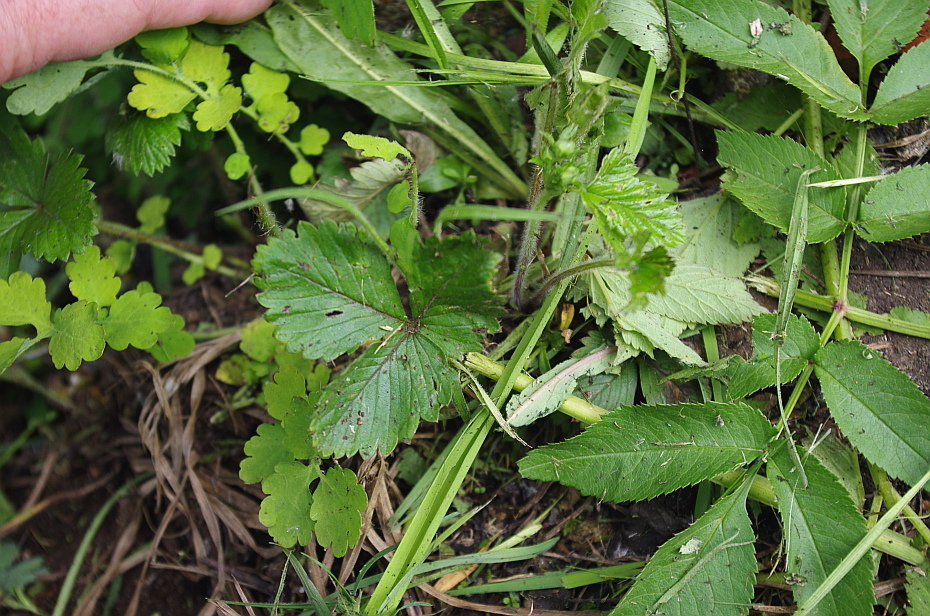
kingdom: Plantae
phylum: Tracheophyta
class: Magnoliopsida
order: Rosales
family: Rosaceae
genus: Fragaria
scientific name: Fragaria vesca
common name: Wild strawberry
